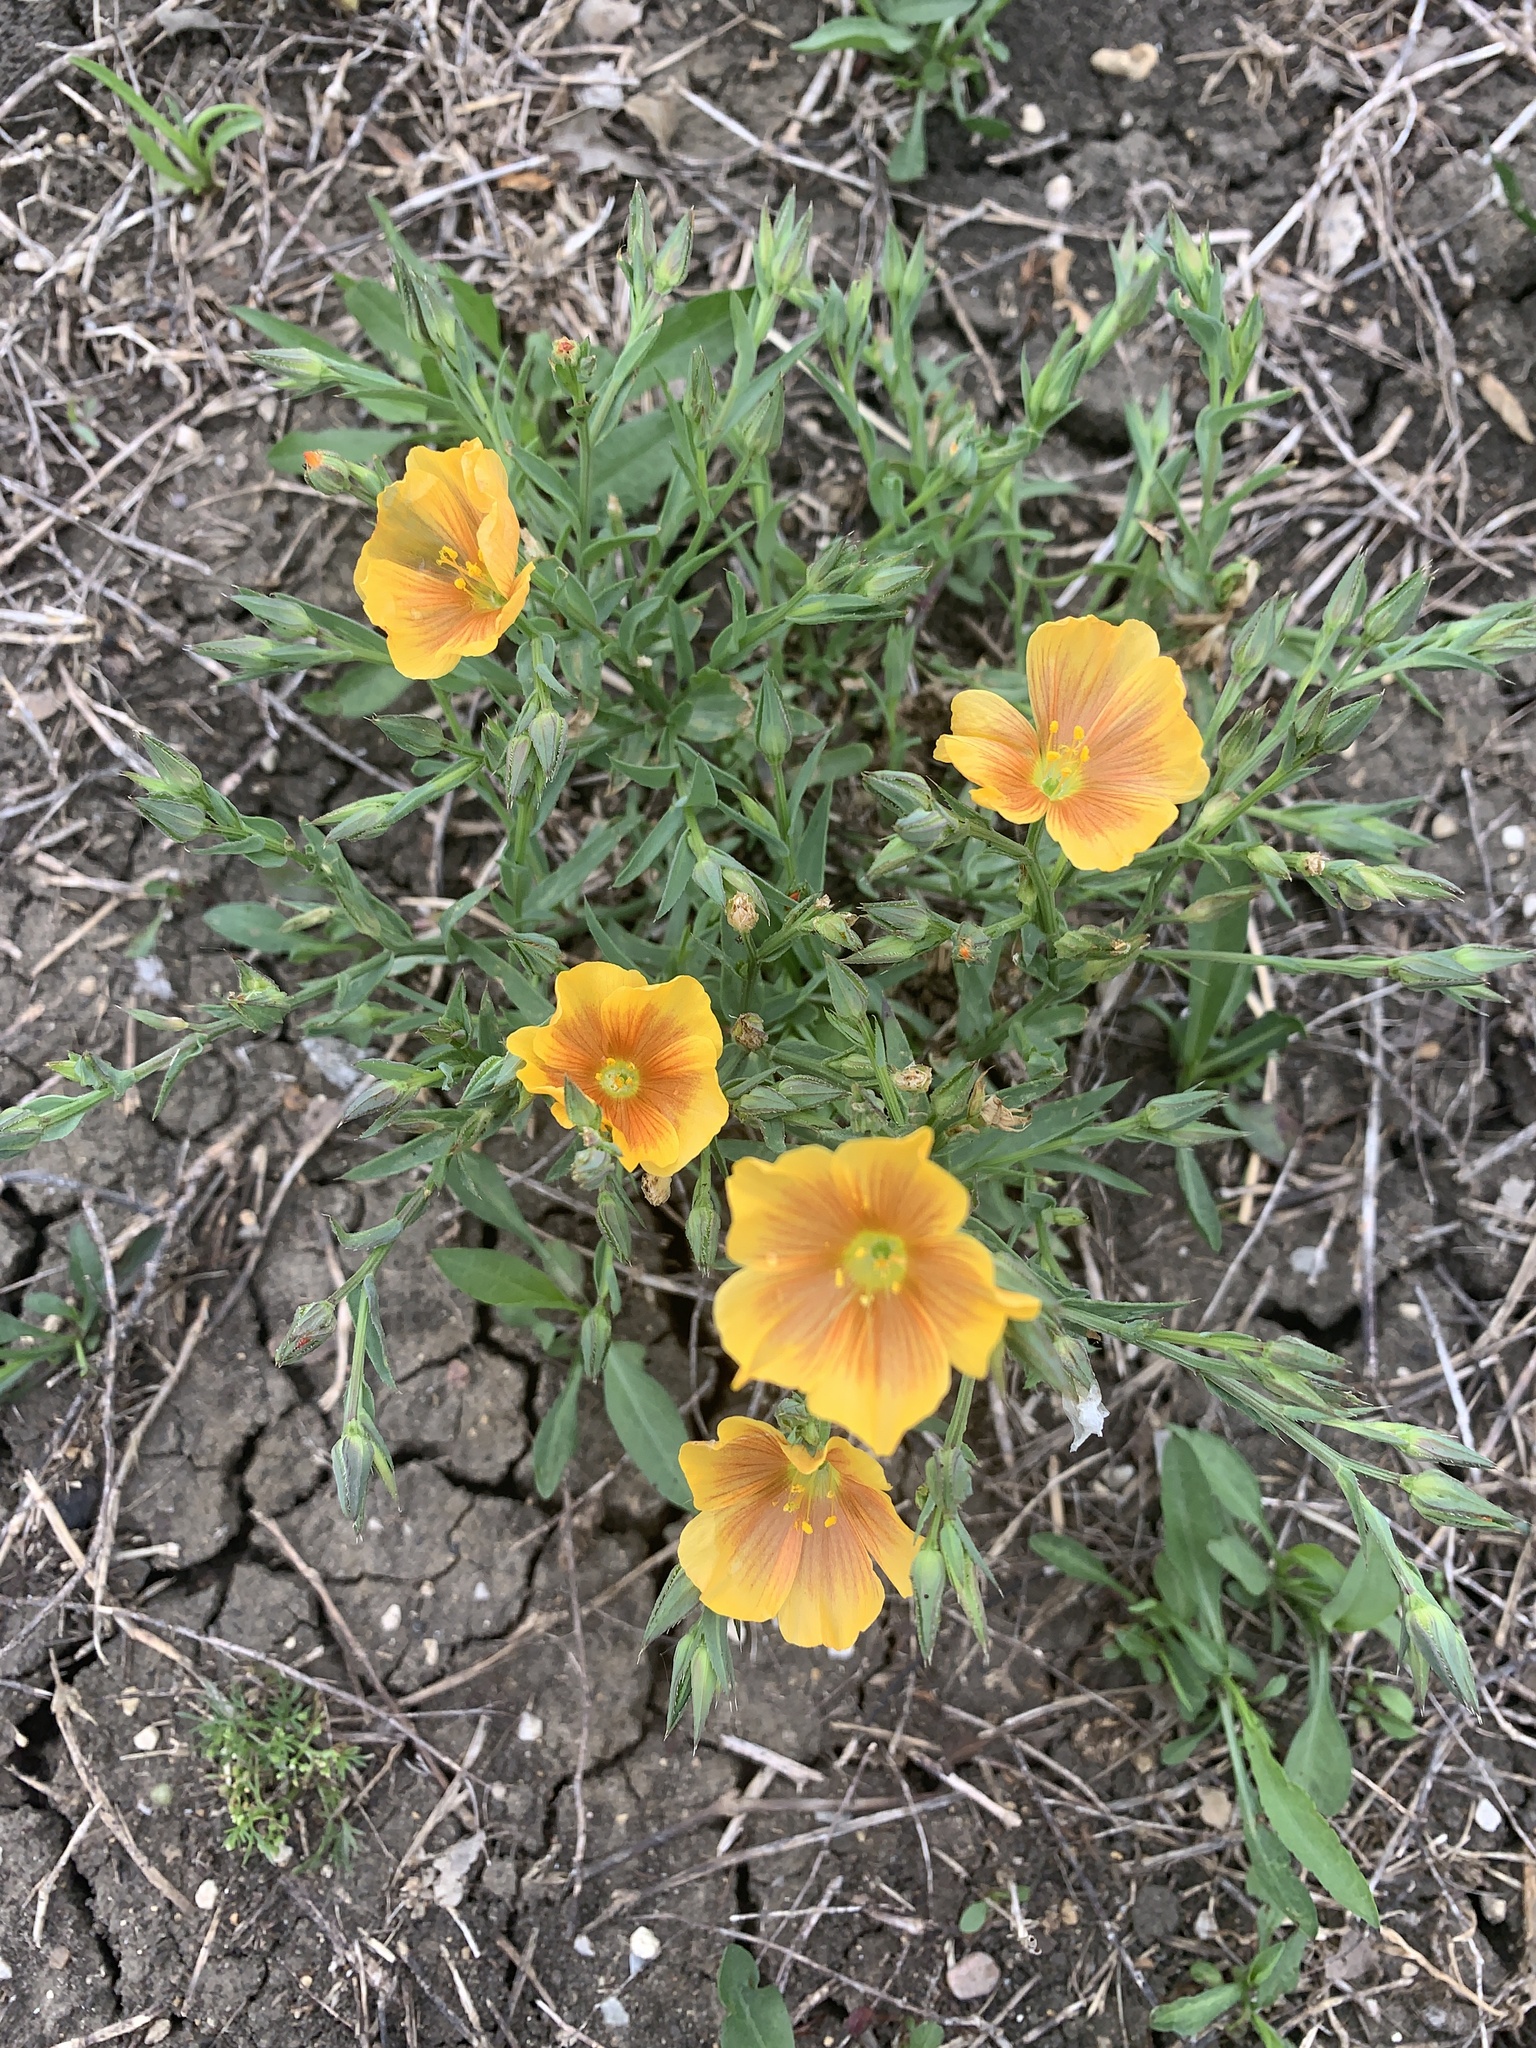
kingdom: Plantae
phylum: Tracheophyta
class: Magnoliopsida
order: Malpighiales
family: Linaceae
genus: Linum
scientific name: Linum berlandieri
